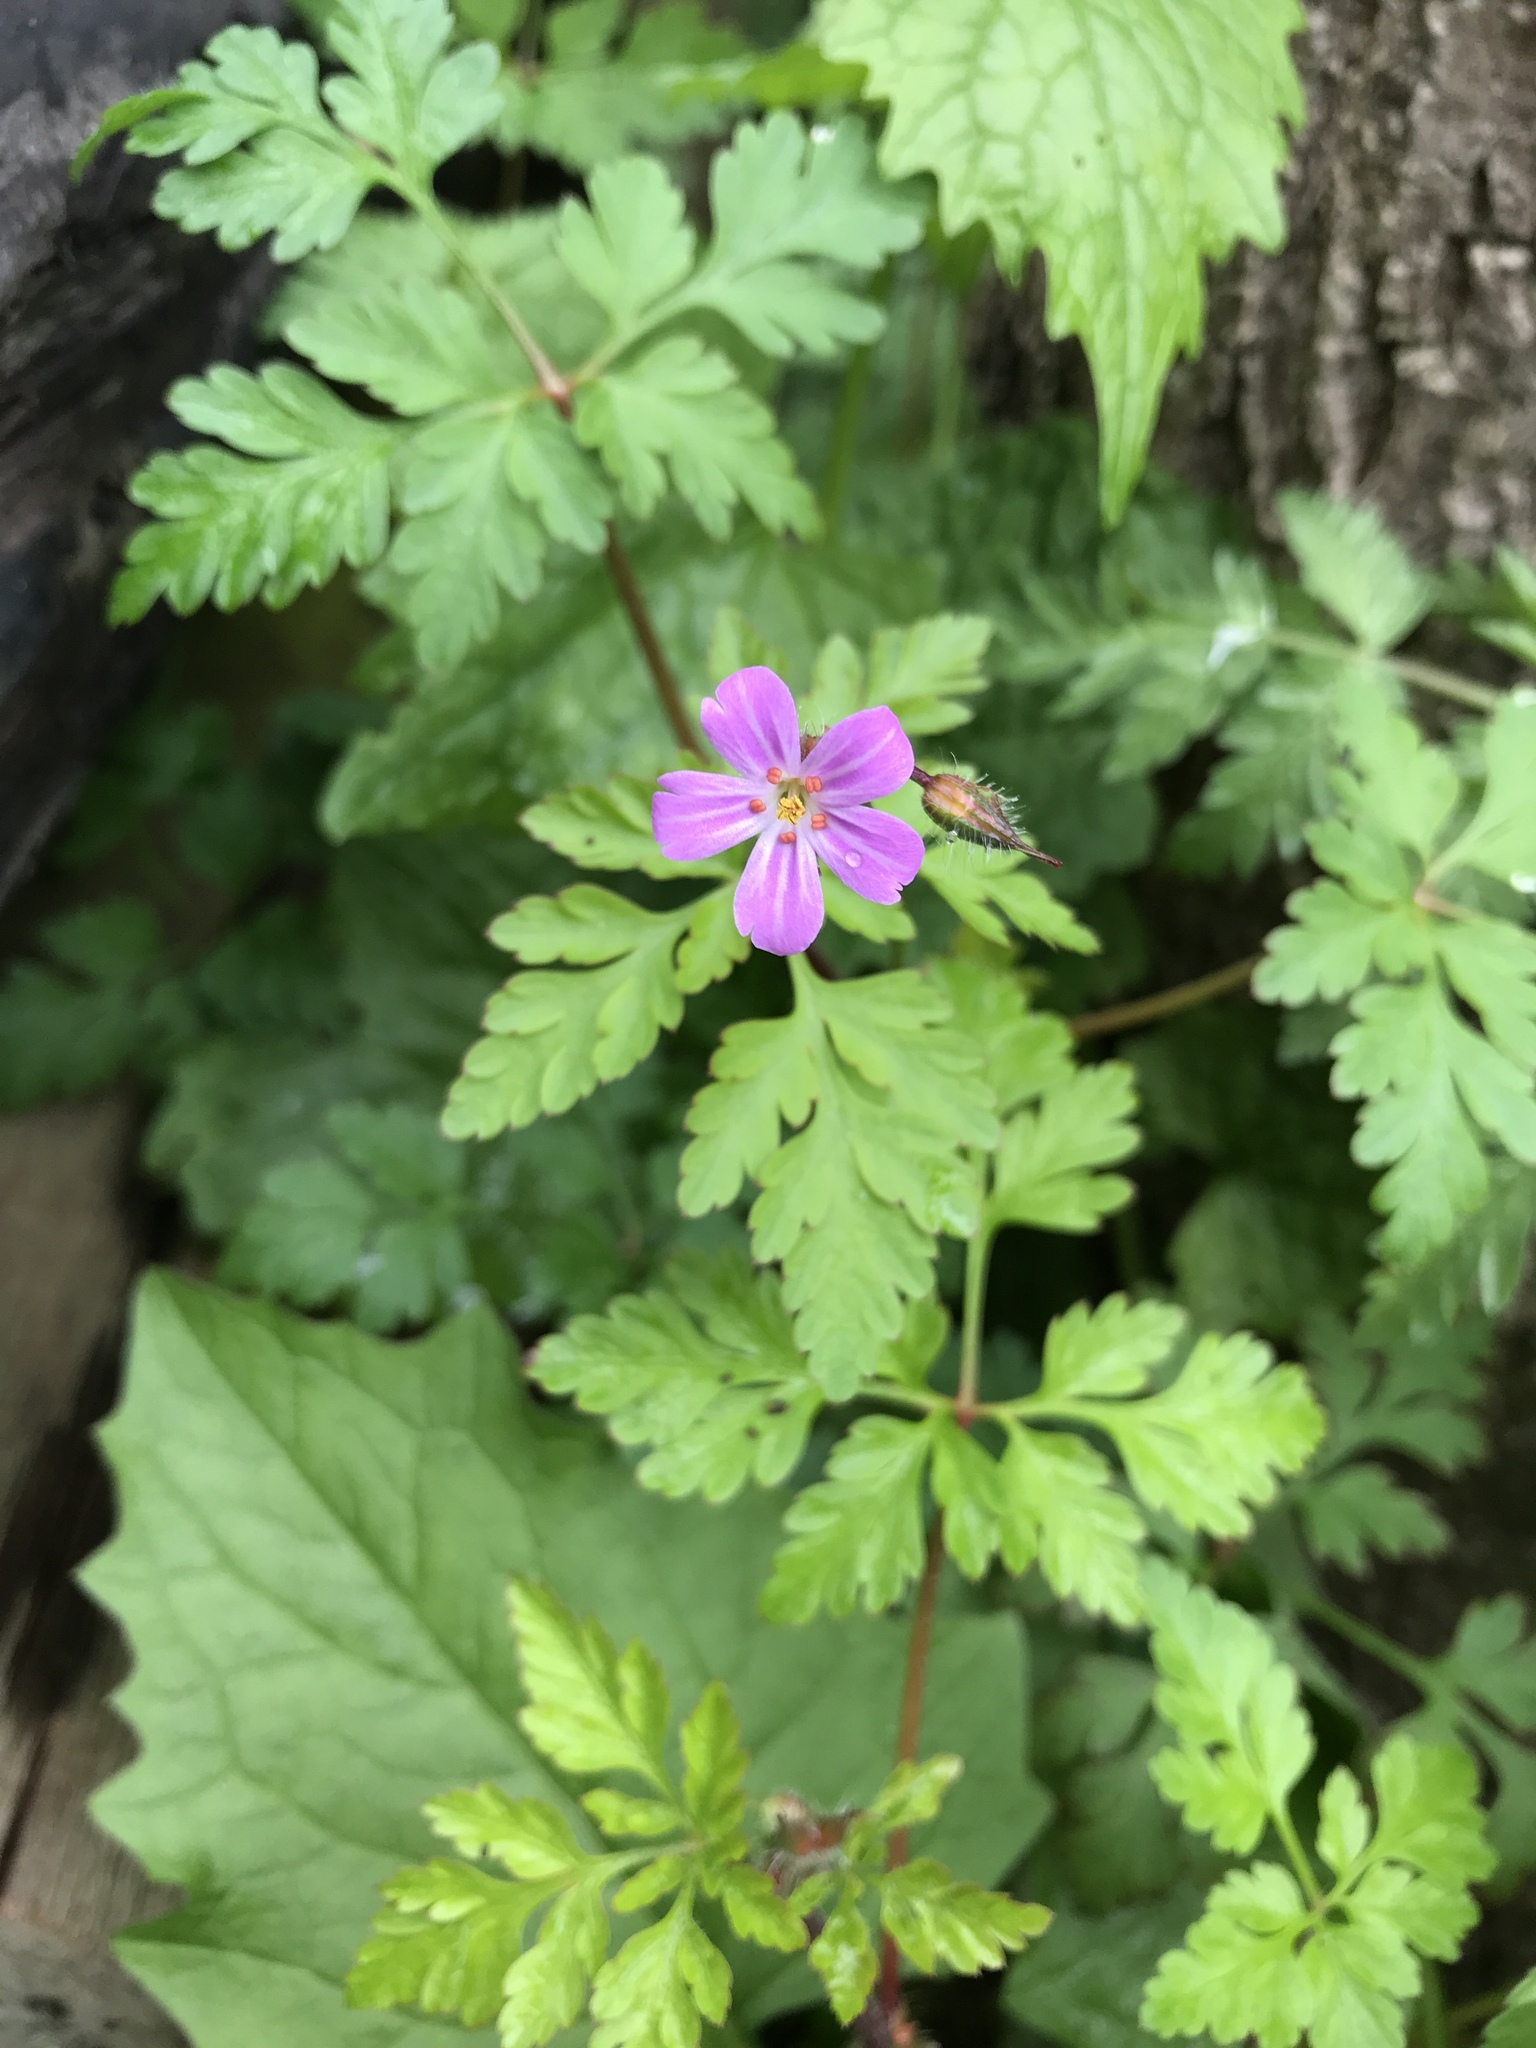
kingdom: Plantae
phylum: Tracheophyta
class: Magnoliopsida
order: Geraniales
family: Geraniaceae
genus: Geranium
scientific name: Geranium robertianum
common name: Herb-robert
